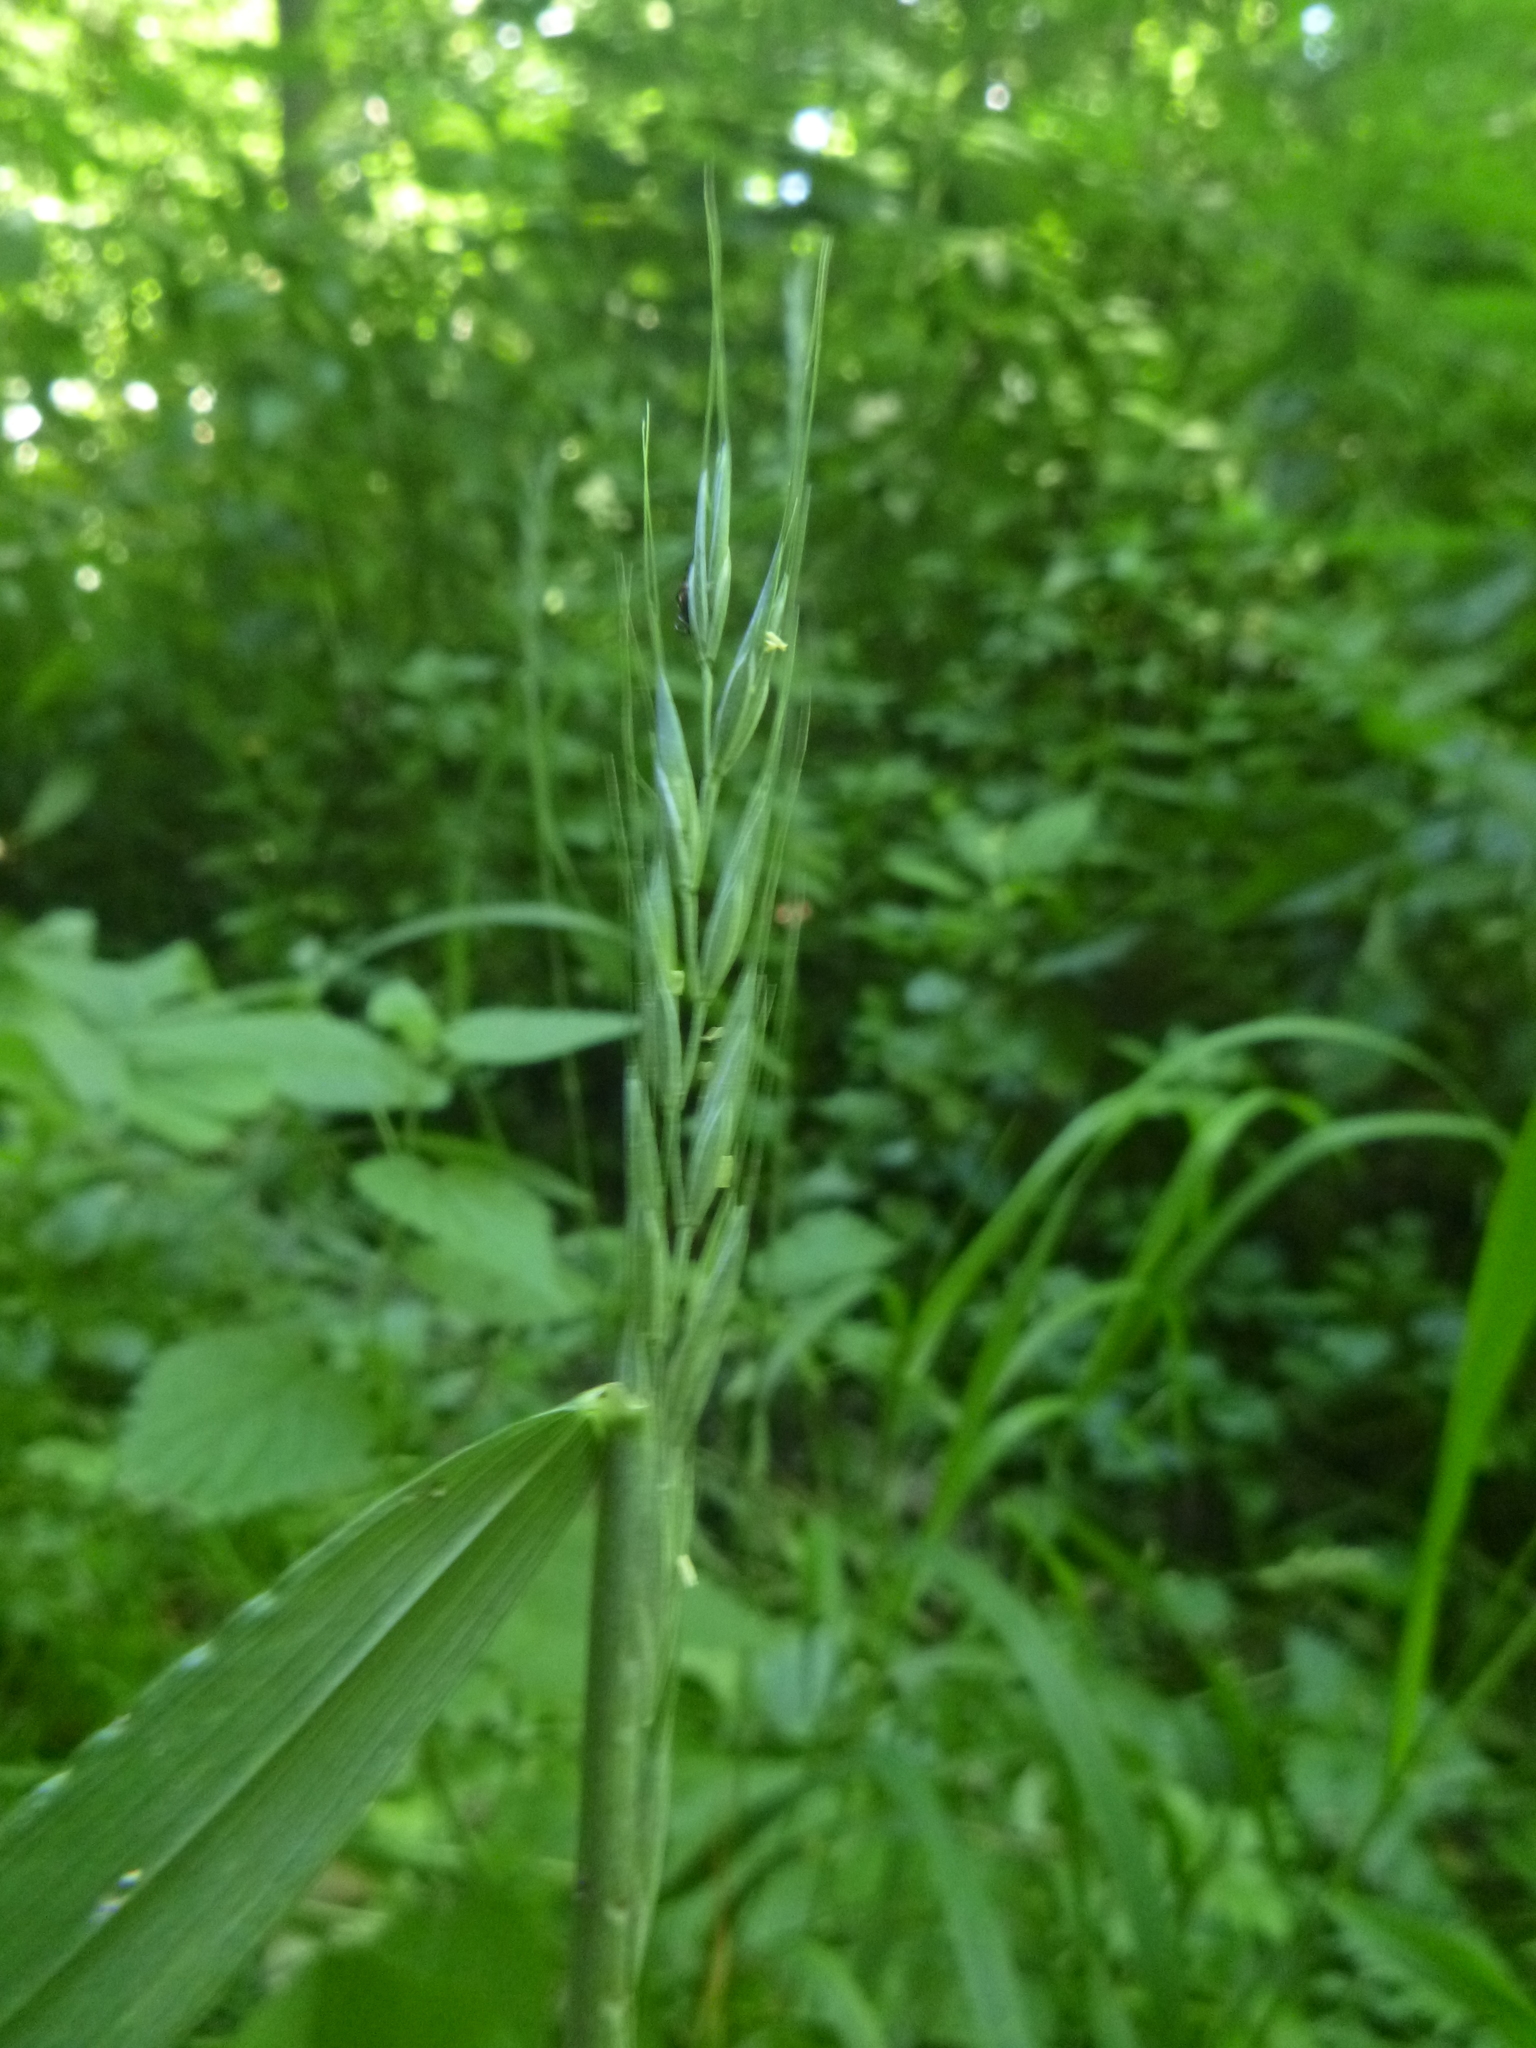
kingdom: Plantae
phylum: Tracheophyta
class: Liliopsida
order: Poales
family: Poaceae
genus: Elymus
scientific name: Elymus caninus
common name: Bearded couch
